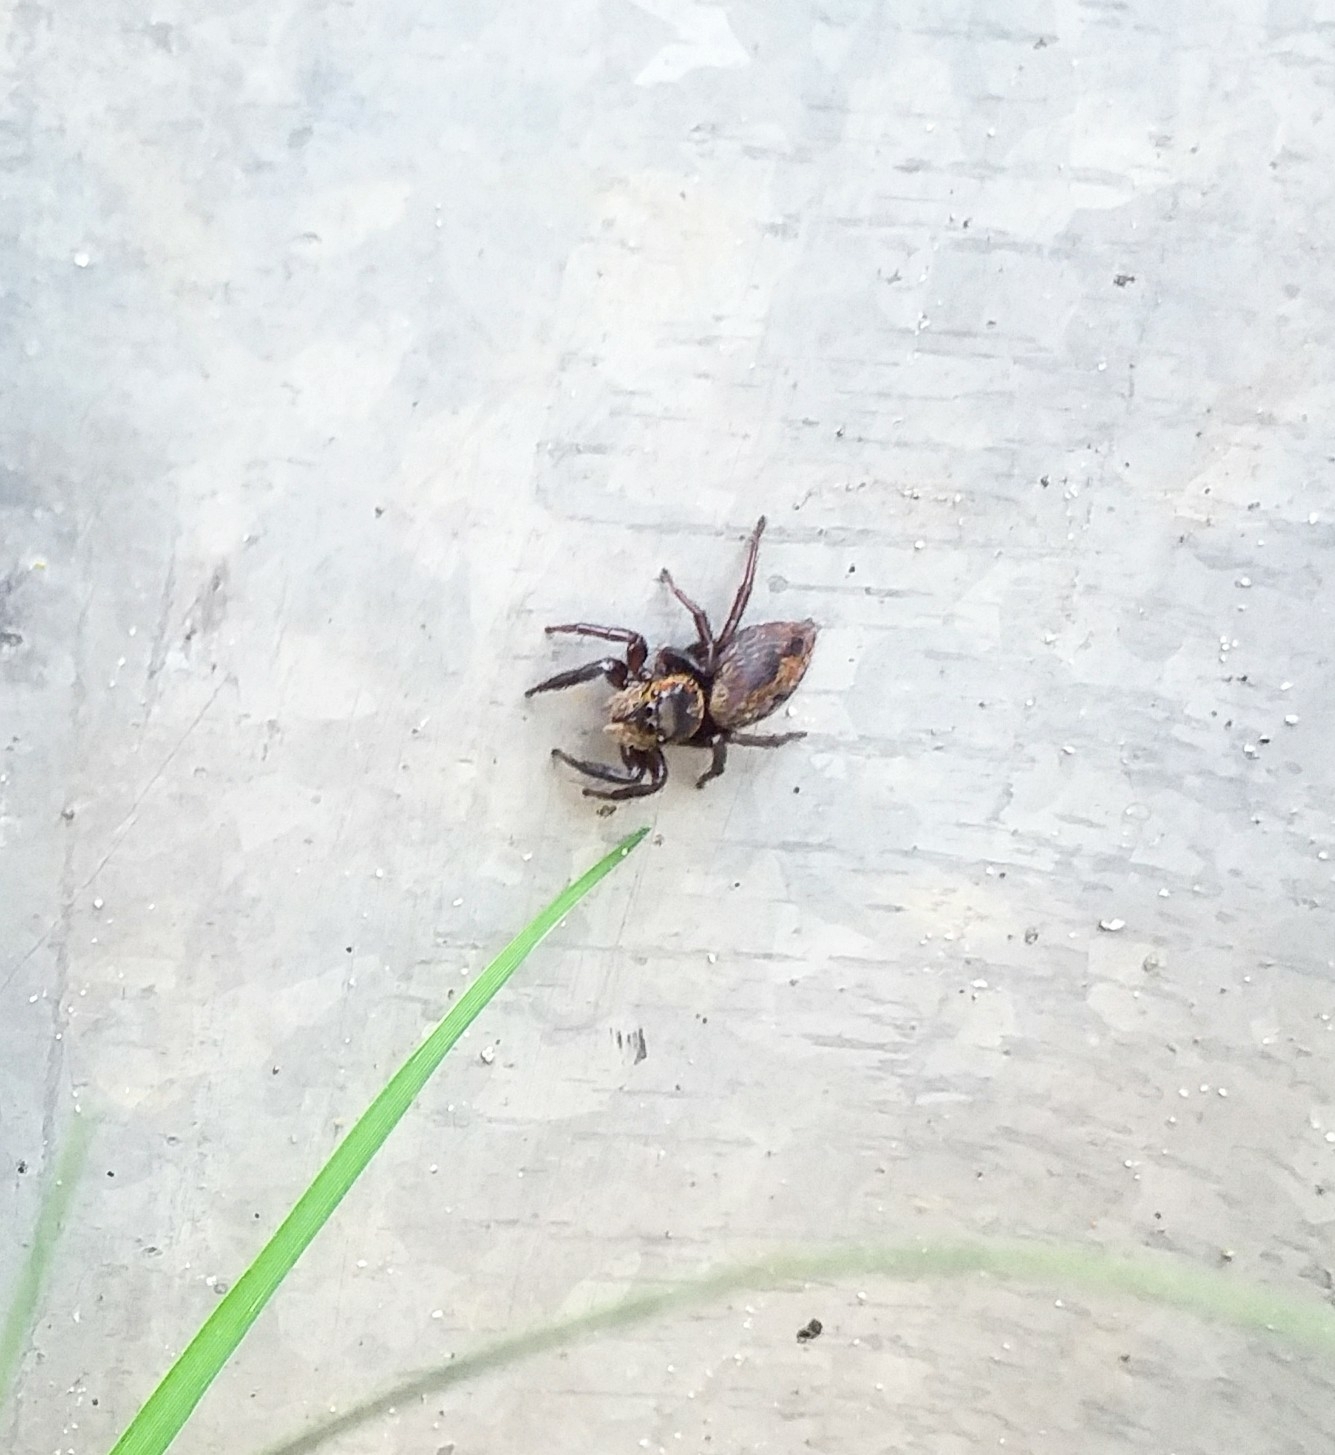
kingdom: Animalia
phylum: Arthropoda
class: Arachnida
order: Araneae
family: Salticidae
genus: Hasarius
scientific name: Hasarius adansoni
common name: Jumping spider
